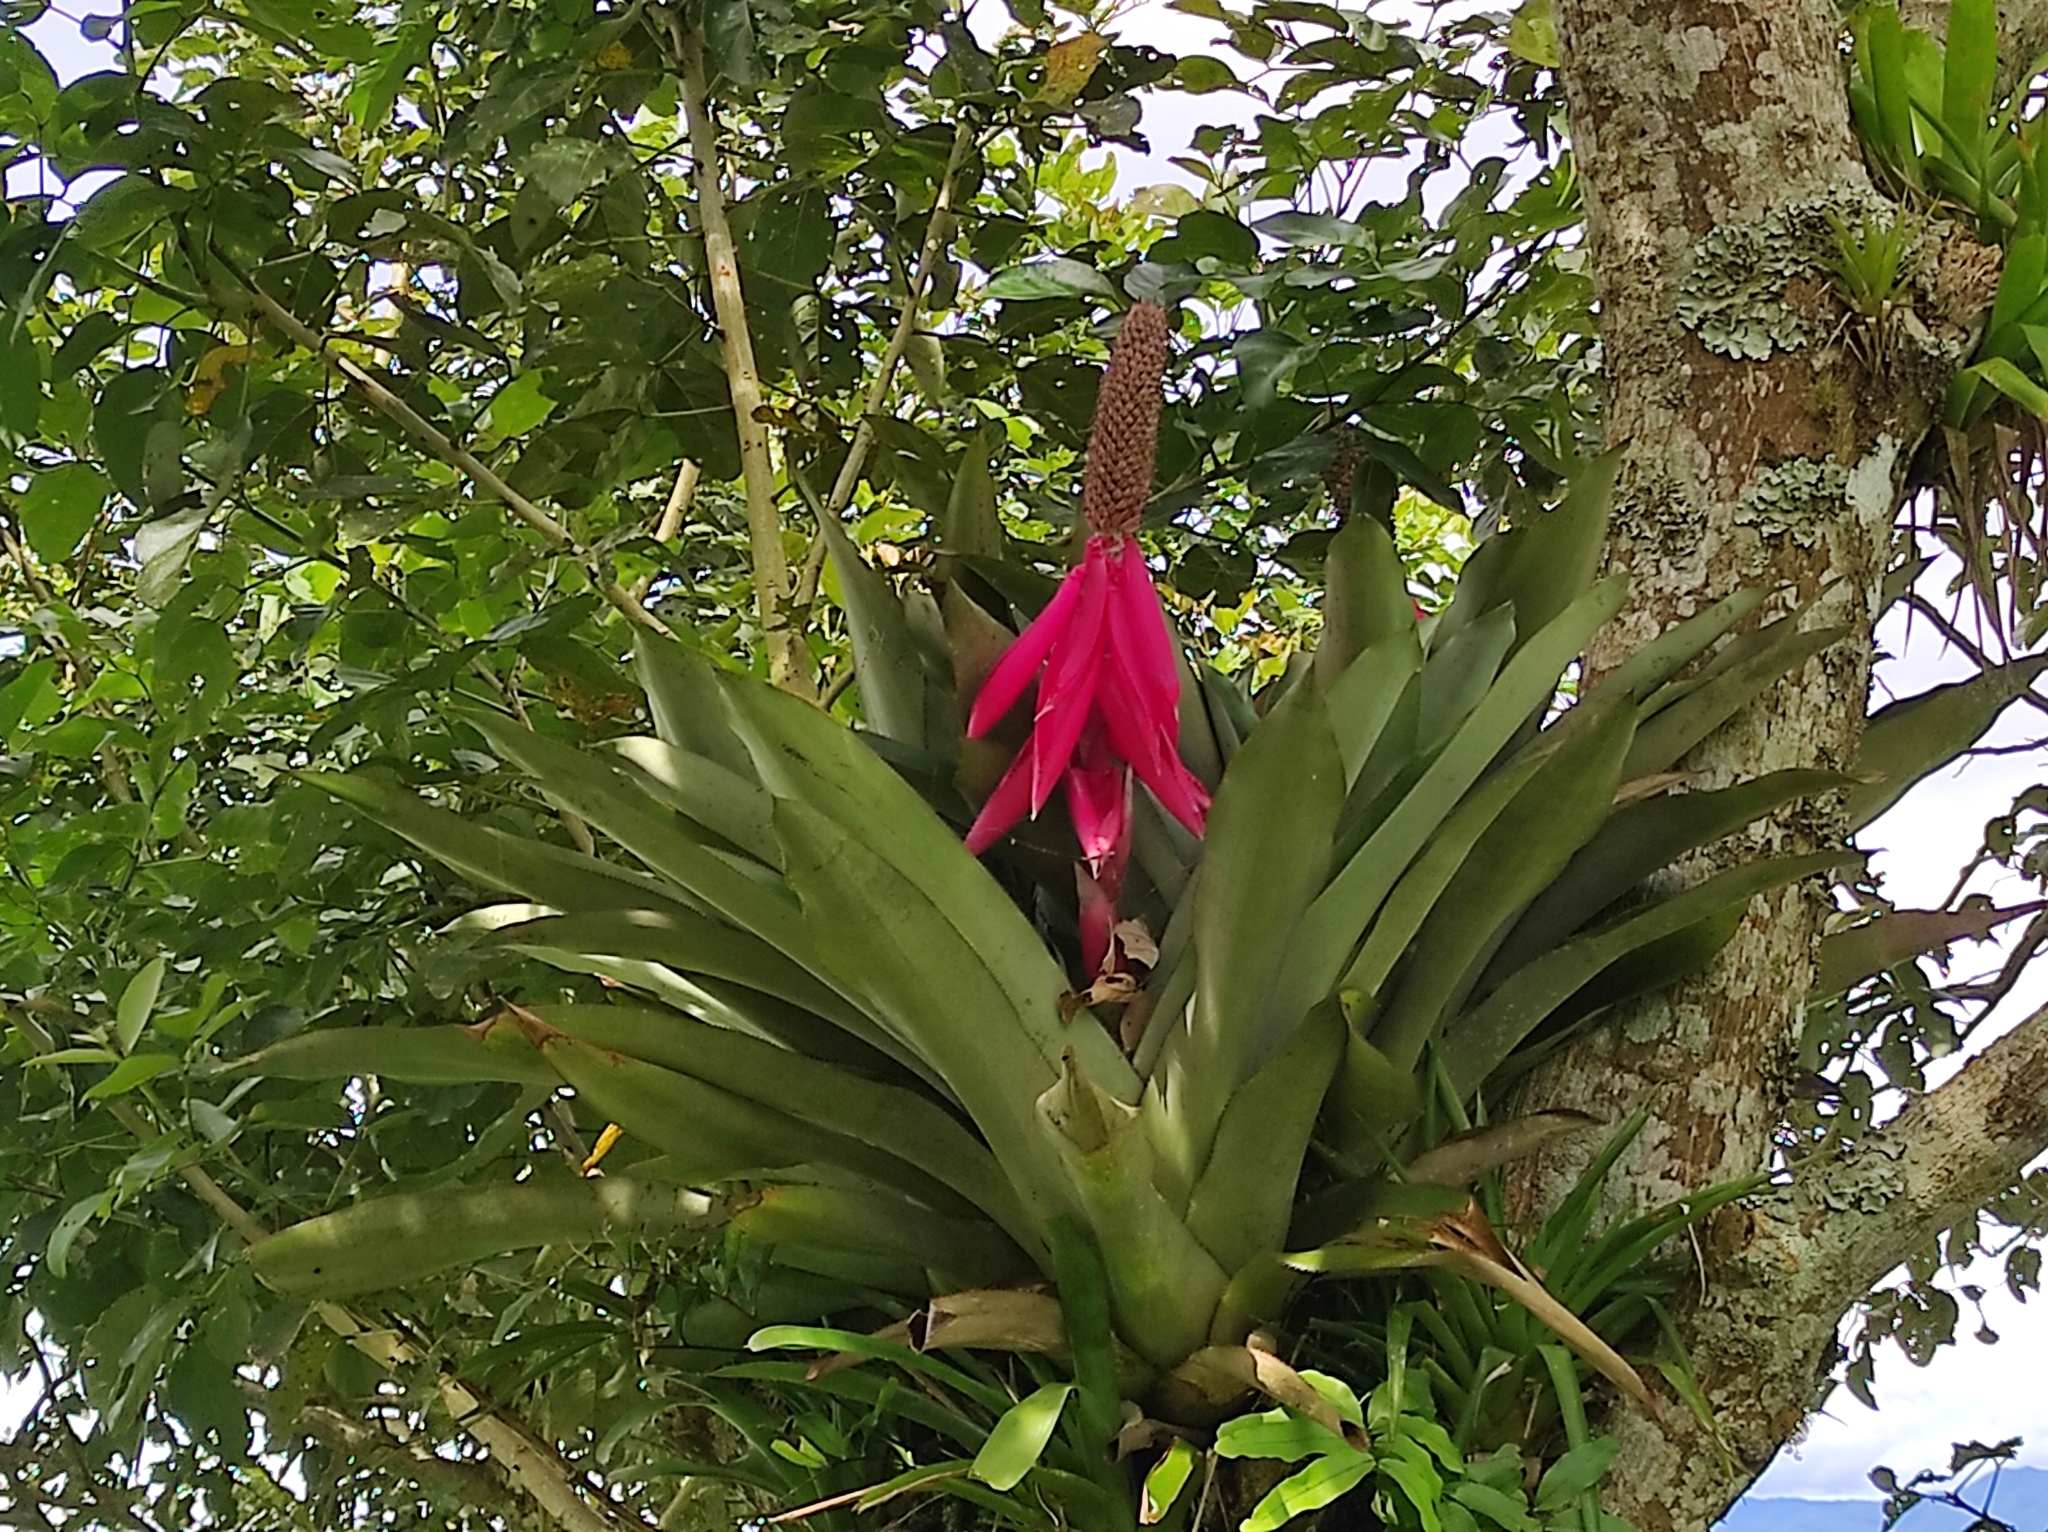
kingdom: Plantae
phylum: Tracheophyta
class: Liliopsida
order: Poales
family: Bromeliaceae
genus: Aechmea
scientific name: Aechmea mariae-reginae
